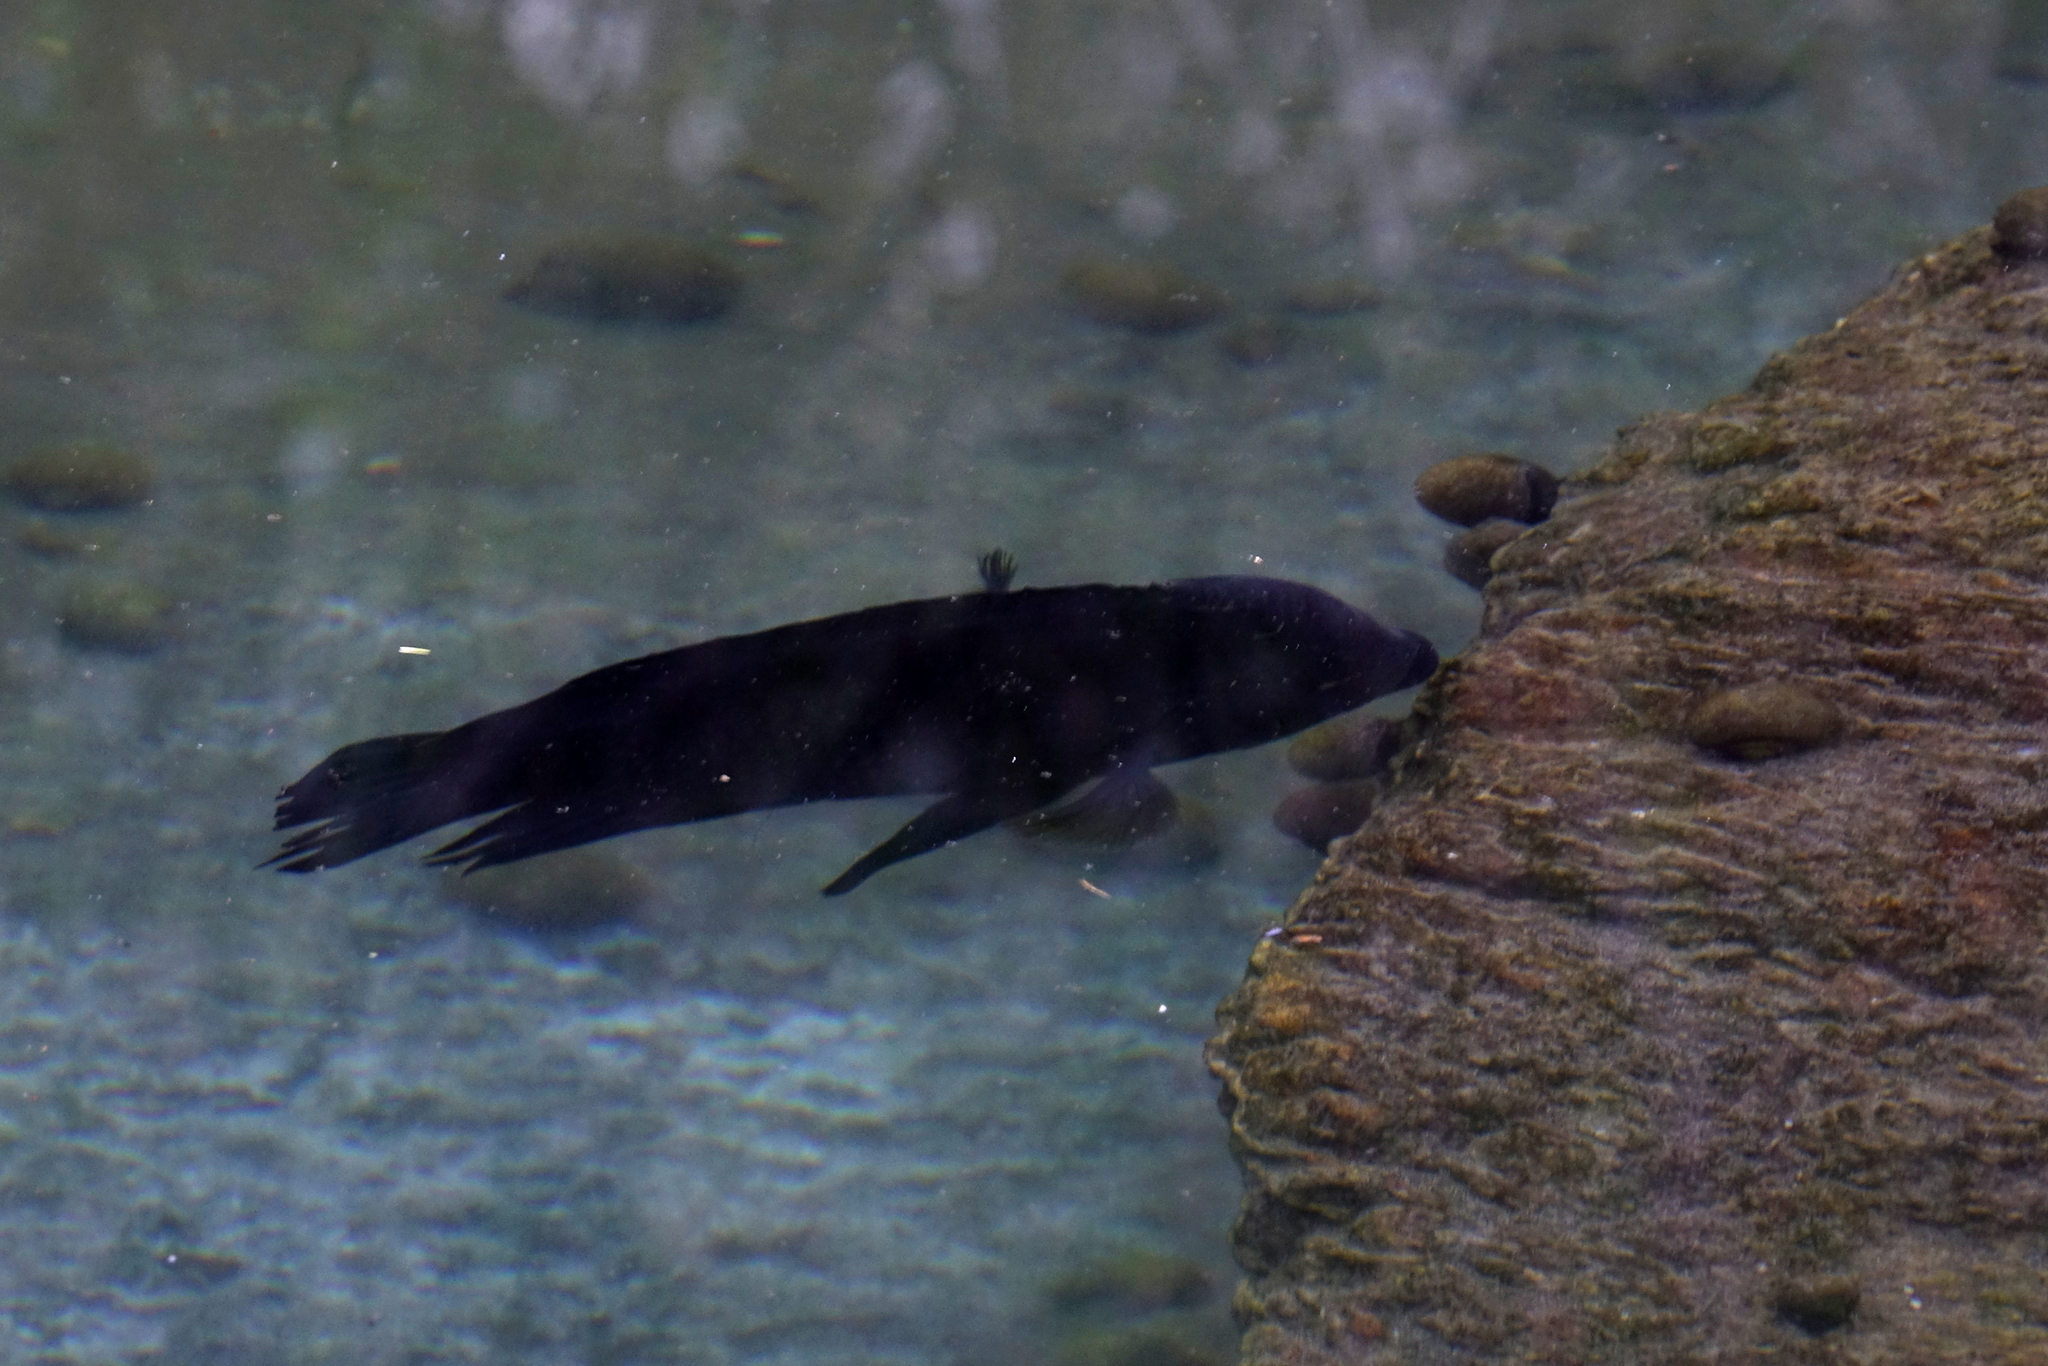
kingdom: Animalia
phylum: Chordata
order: Perciformes
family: Cichlidae
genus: Australoheros
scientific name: Australoheros facetus
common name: Chameleon cichlid
